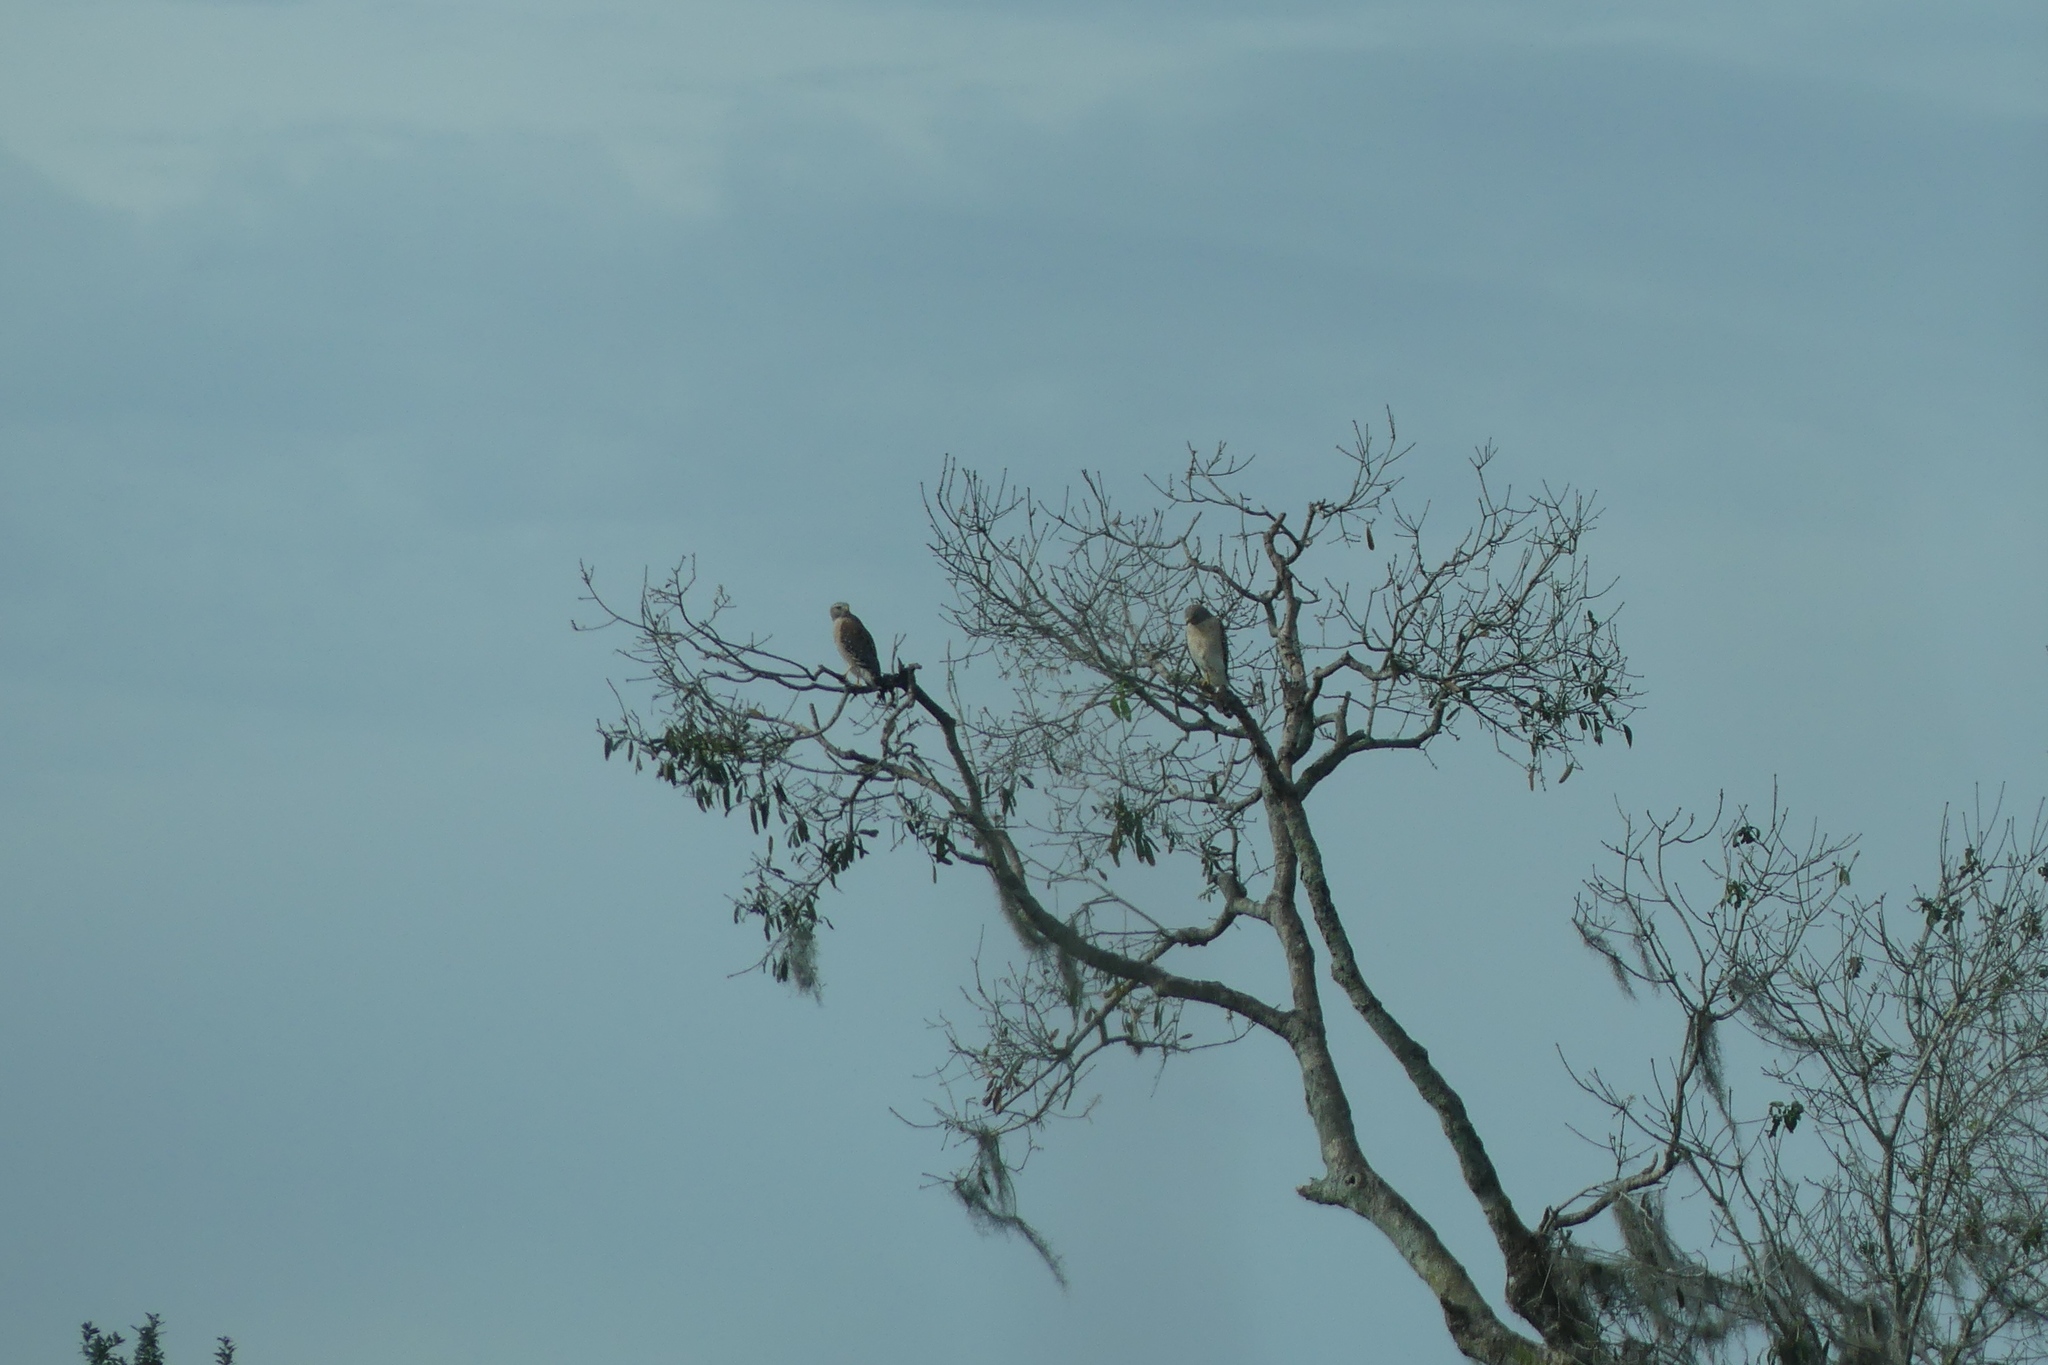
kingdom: Animalia
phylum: Chordata
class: Aves
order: Accipitriformes
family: Accipitridae
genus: Buteo
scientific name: Buteo lineatus
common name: Red-shouldered hawk
